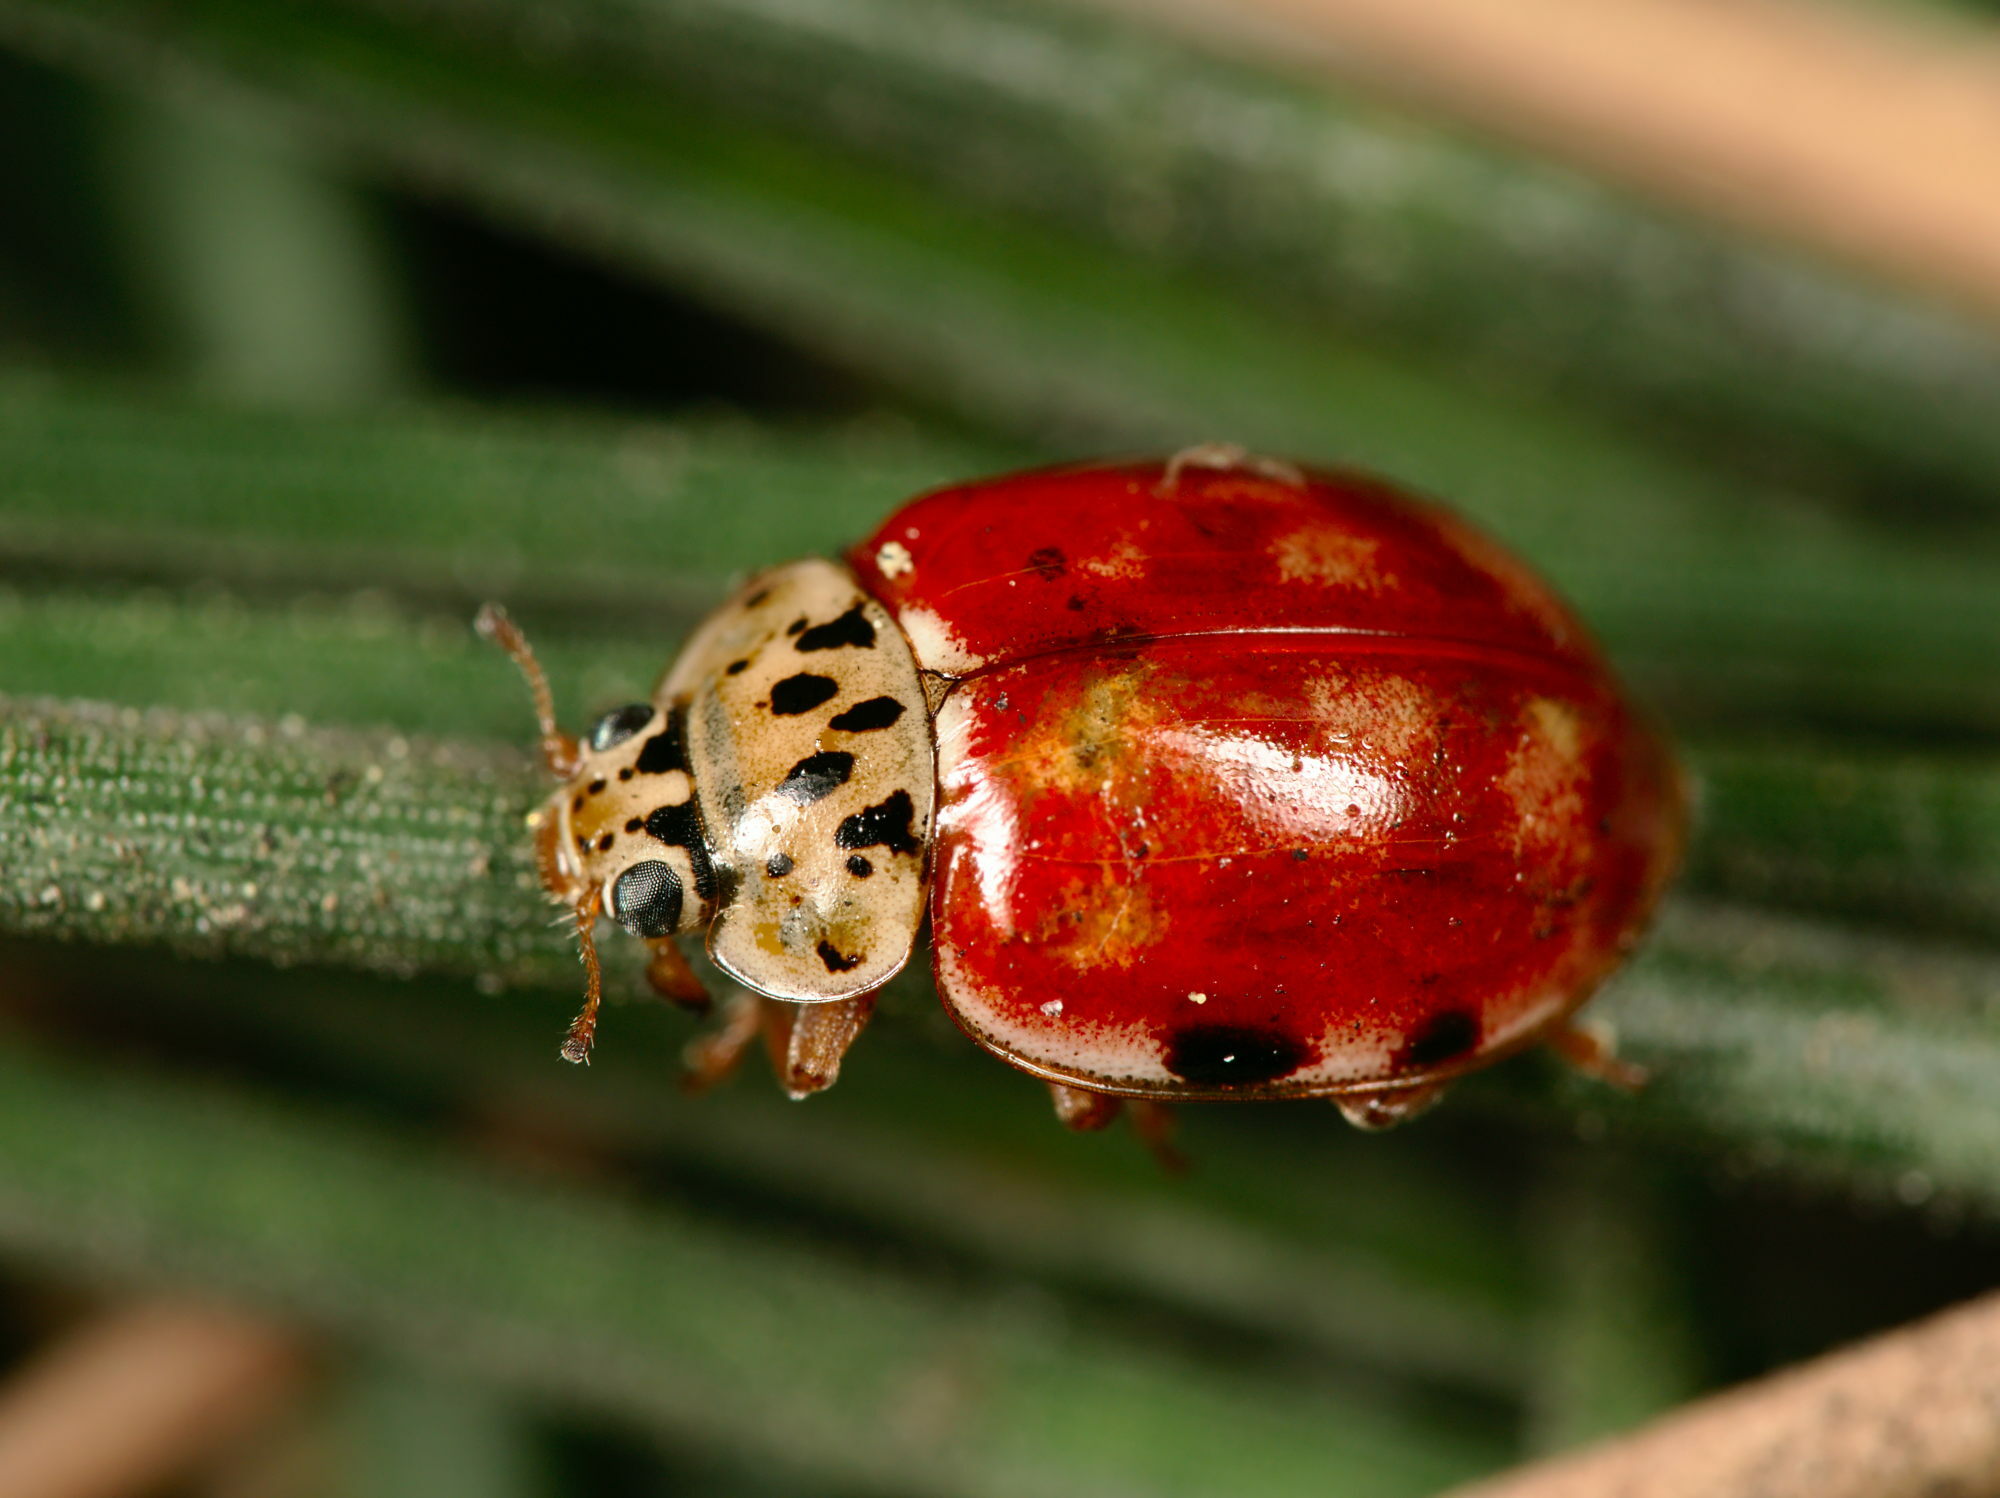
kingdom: Animalia
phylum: Arthropoda
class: Insecta
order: Coleoptera
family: Coccinellidae
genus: Harmonia
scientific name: Harmonia quadripunctata
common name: Cream-streaked ladybird
